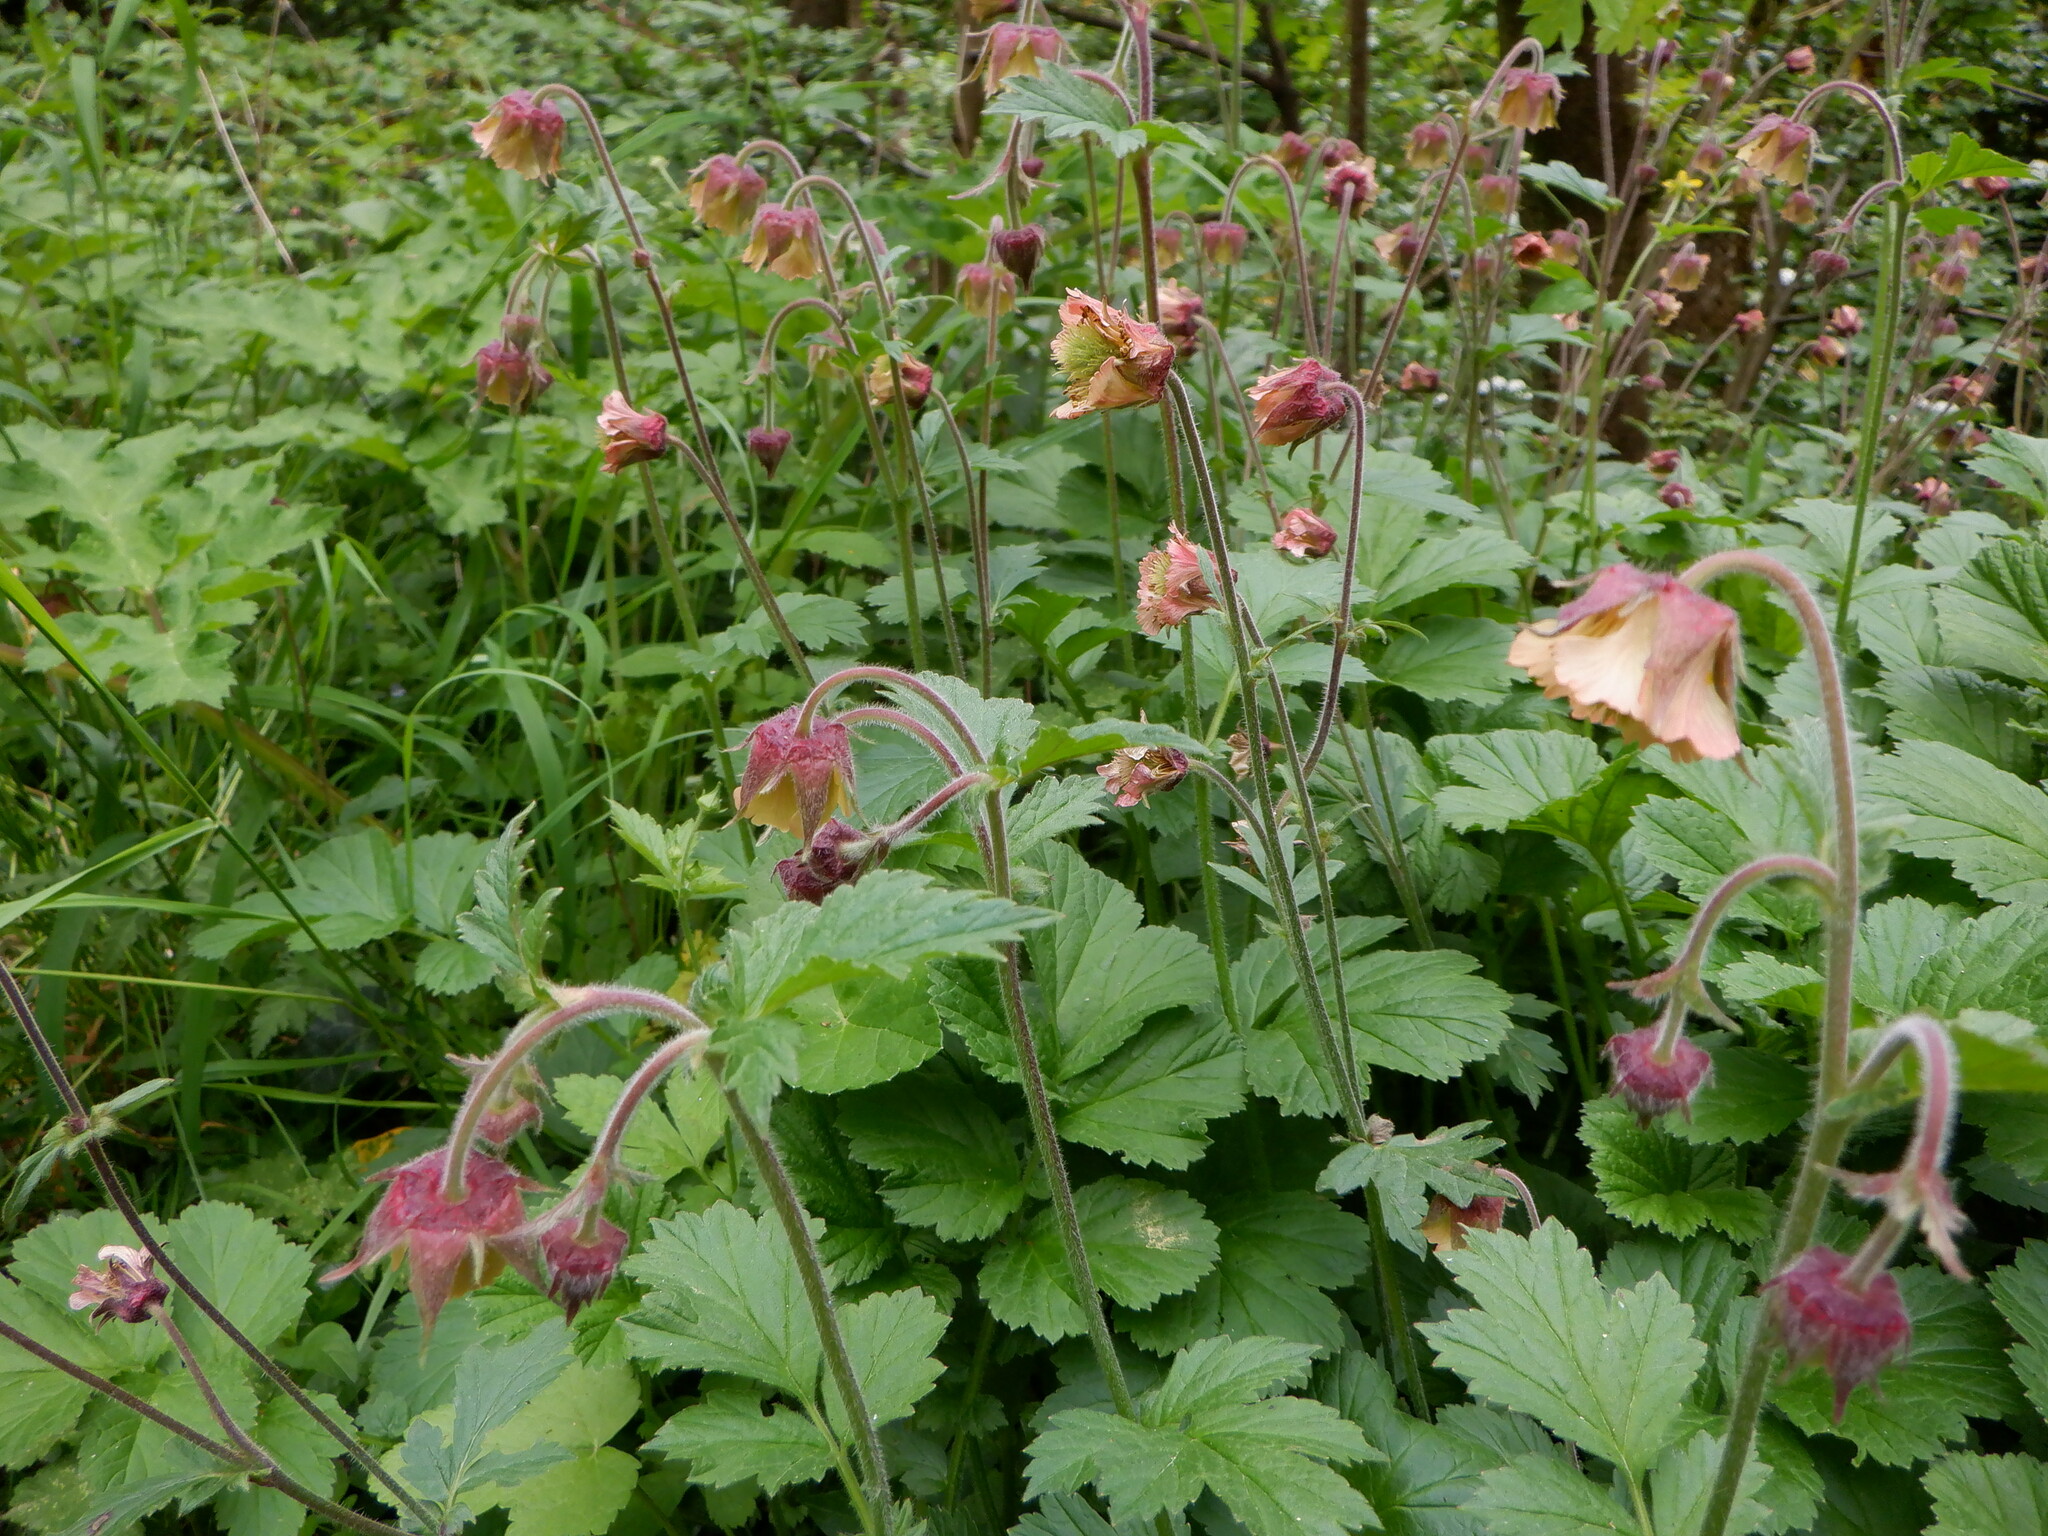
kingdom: Plantae
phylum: Tracheophyta
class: Magnoliopsida
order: Rosales
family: Rosaceae
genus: Geum
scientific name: Geum rivale
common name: Water avens
